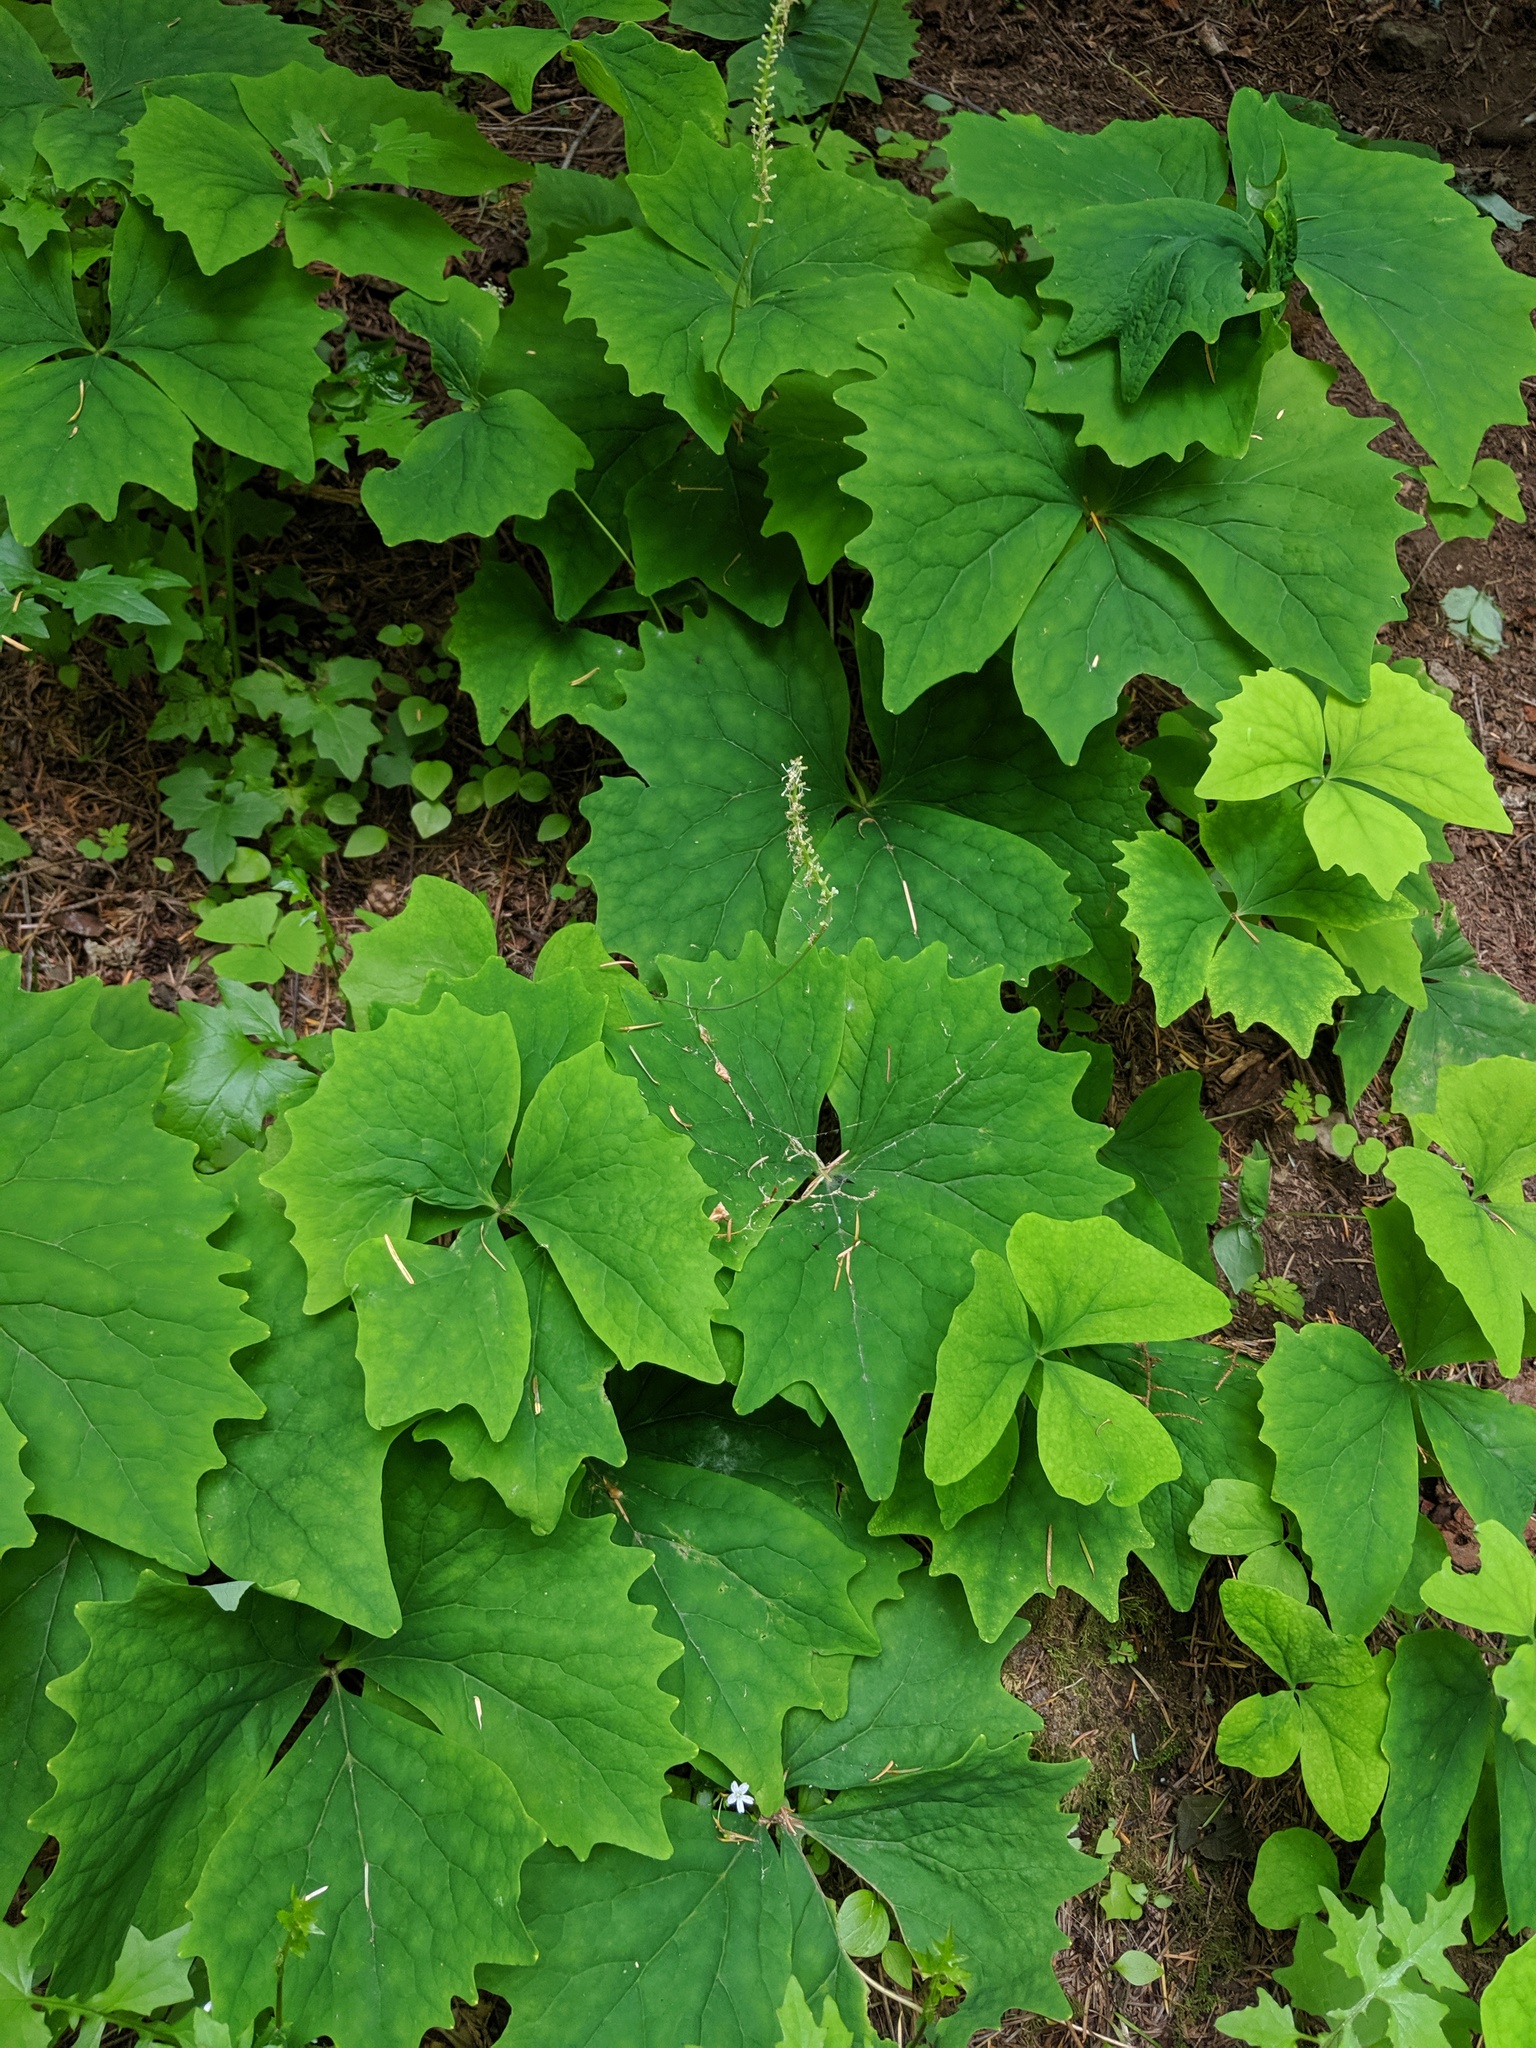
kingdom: Plantae
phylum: Tracheophyta
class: Magnoliopsida
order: Ranunculales
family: Berberidaceae
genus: Achlys
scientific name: Achlys triphylla
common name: Vanilla-leaf
